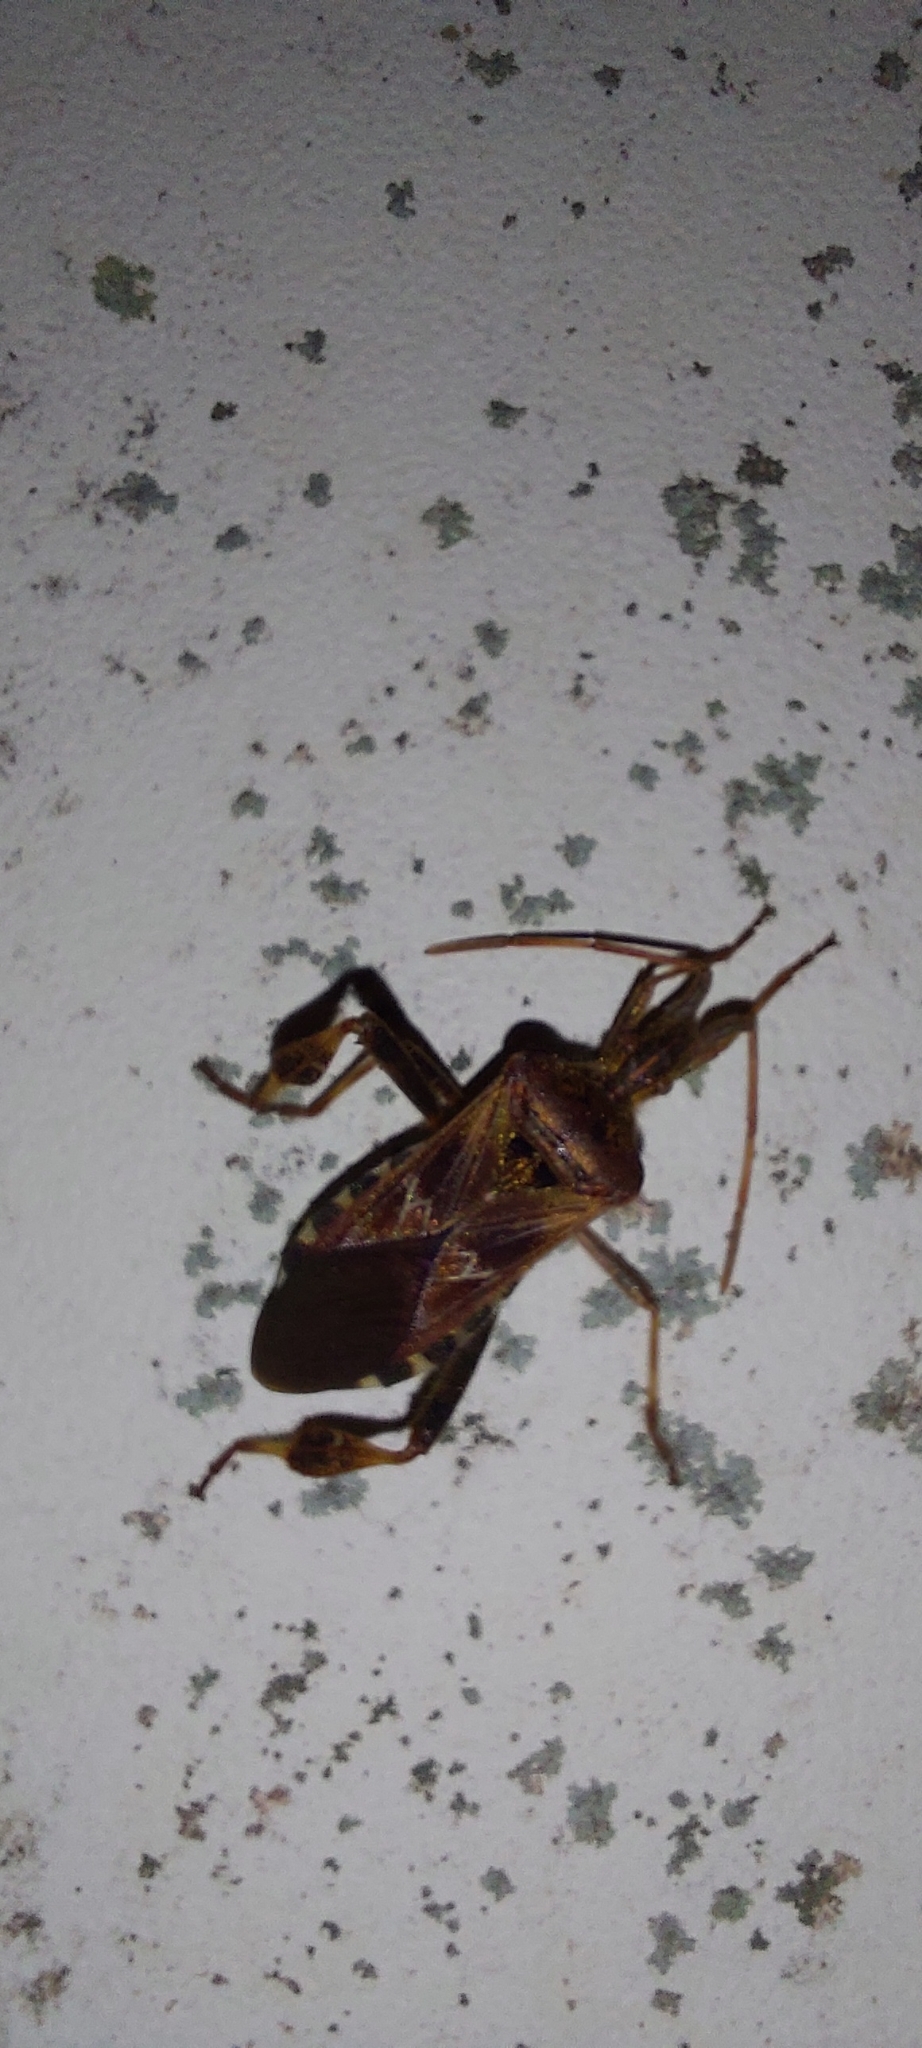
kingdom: Animalia
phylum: Arthropoda
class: Insecta
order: Hemiptera
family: Coreidae
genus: Leptoglossus
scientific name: Leptoglossus occidentalis
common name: Western conifer-seed bug
